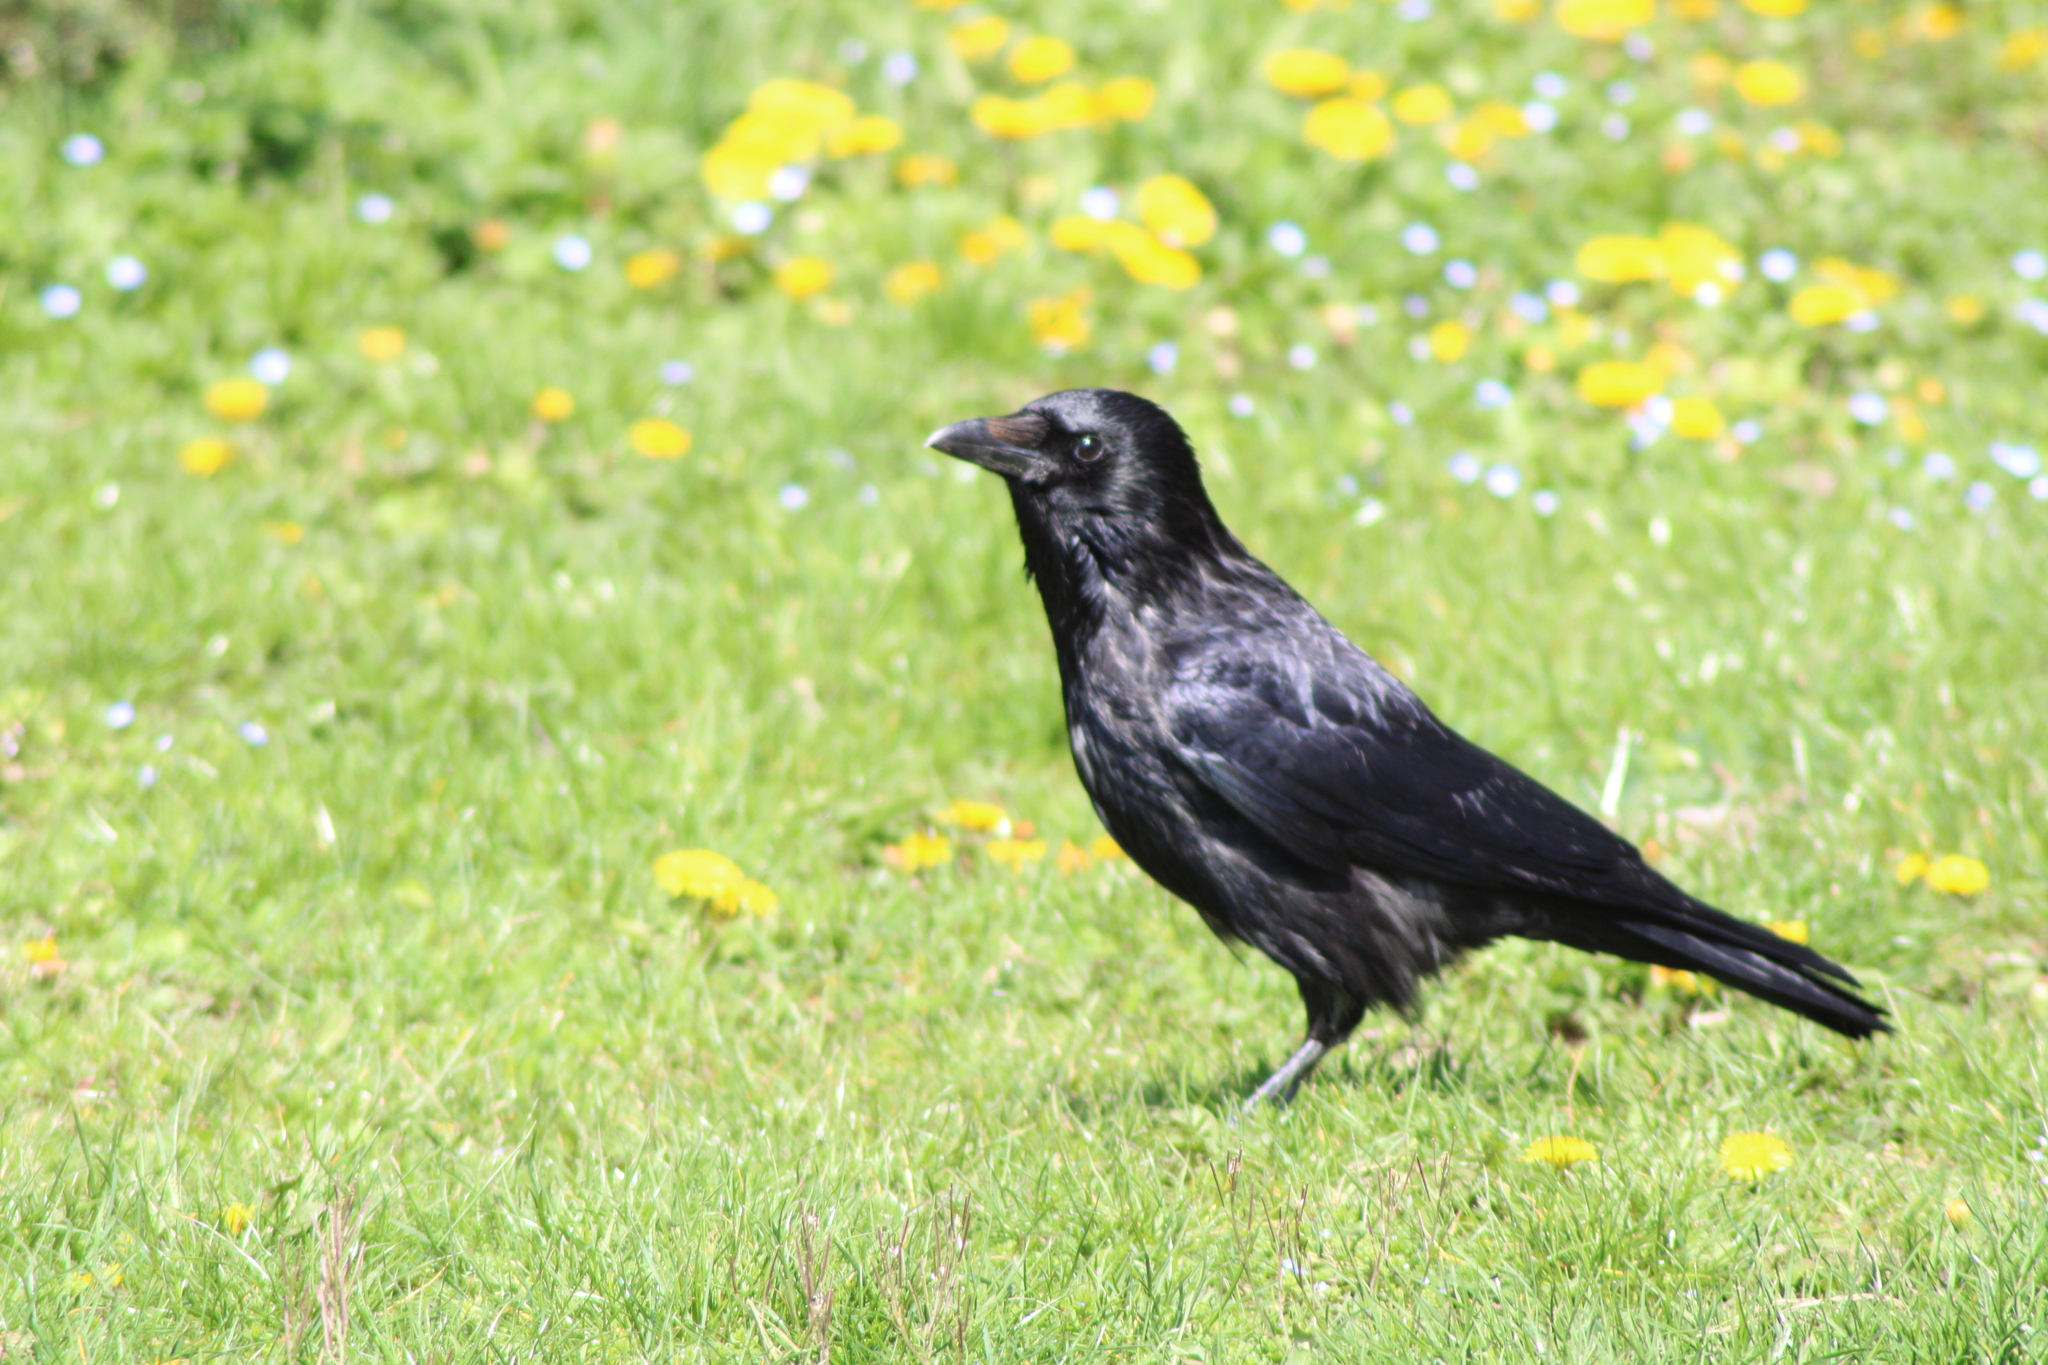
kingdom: Animalia
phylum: Chordata
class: Aves
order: Passeriformes
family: Corvidae
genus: Corvus
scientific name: Corvus corone
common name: Carrion crow
